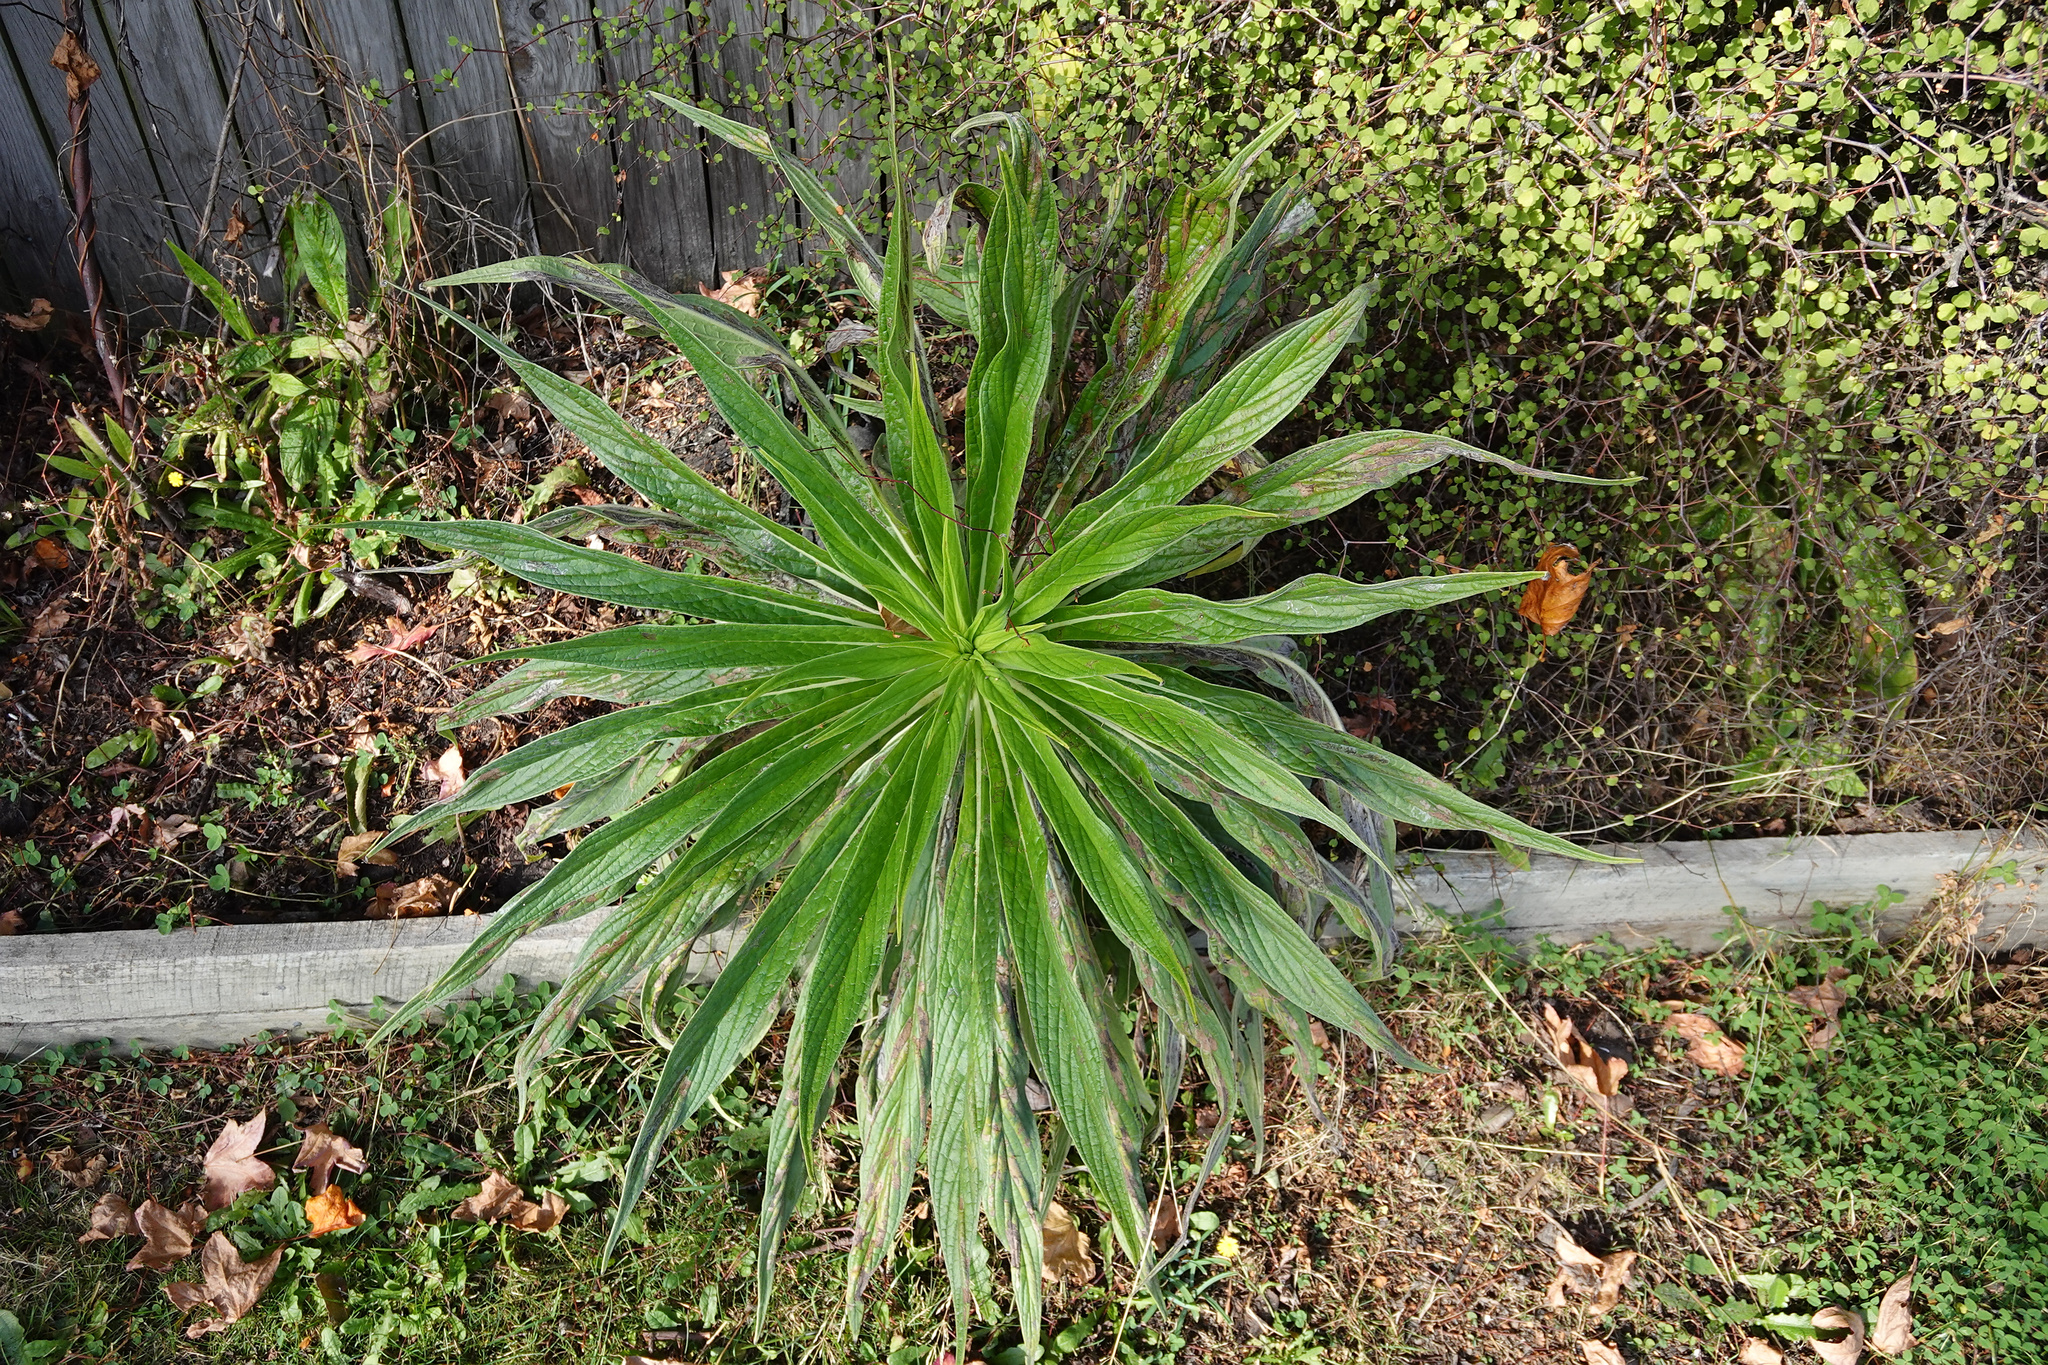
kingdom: Plantae
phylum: Tracheophyta
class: Magnoliopsida
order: Boraginales
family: Boraginaceae
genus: Echium
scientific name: Echium pininana
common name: Giant viper's-bugloss
